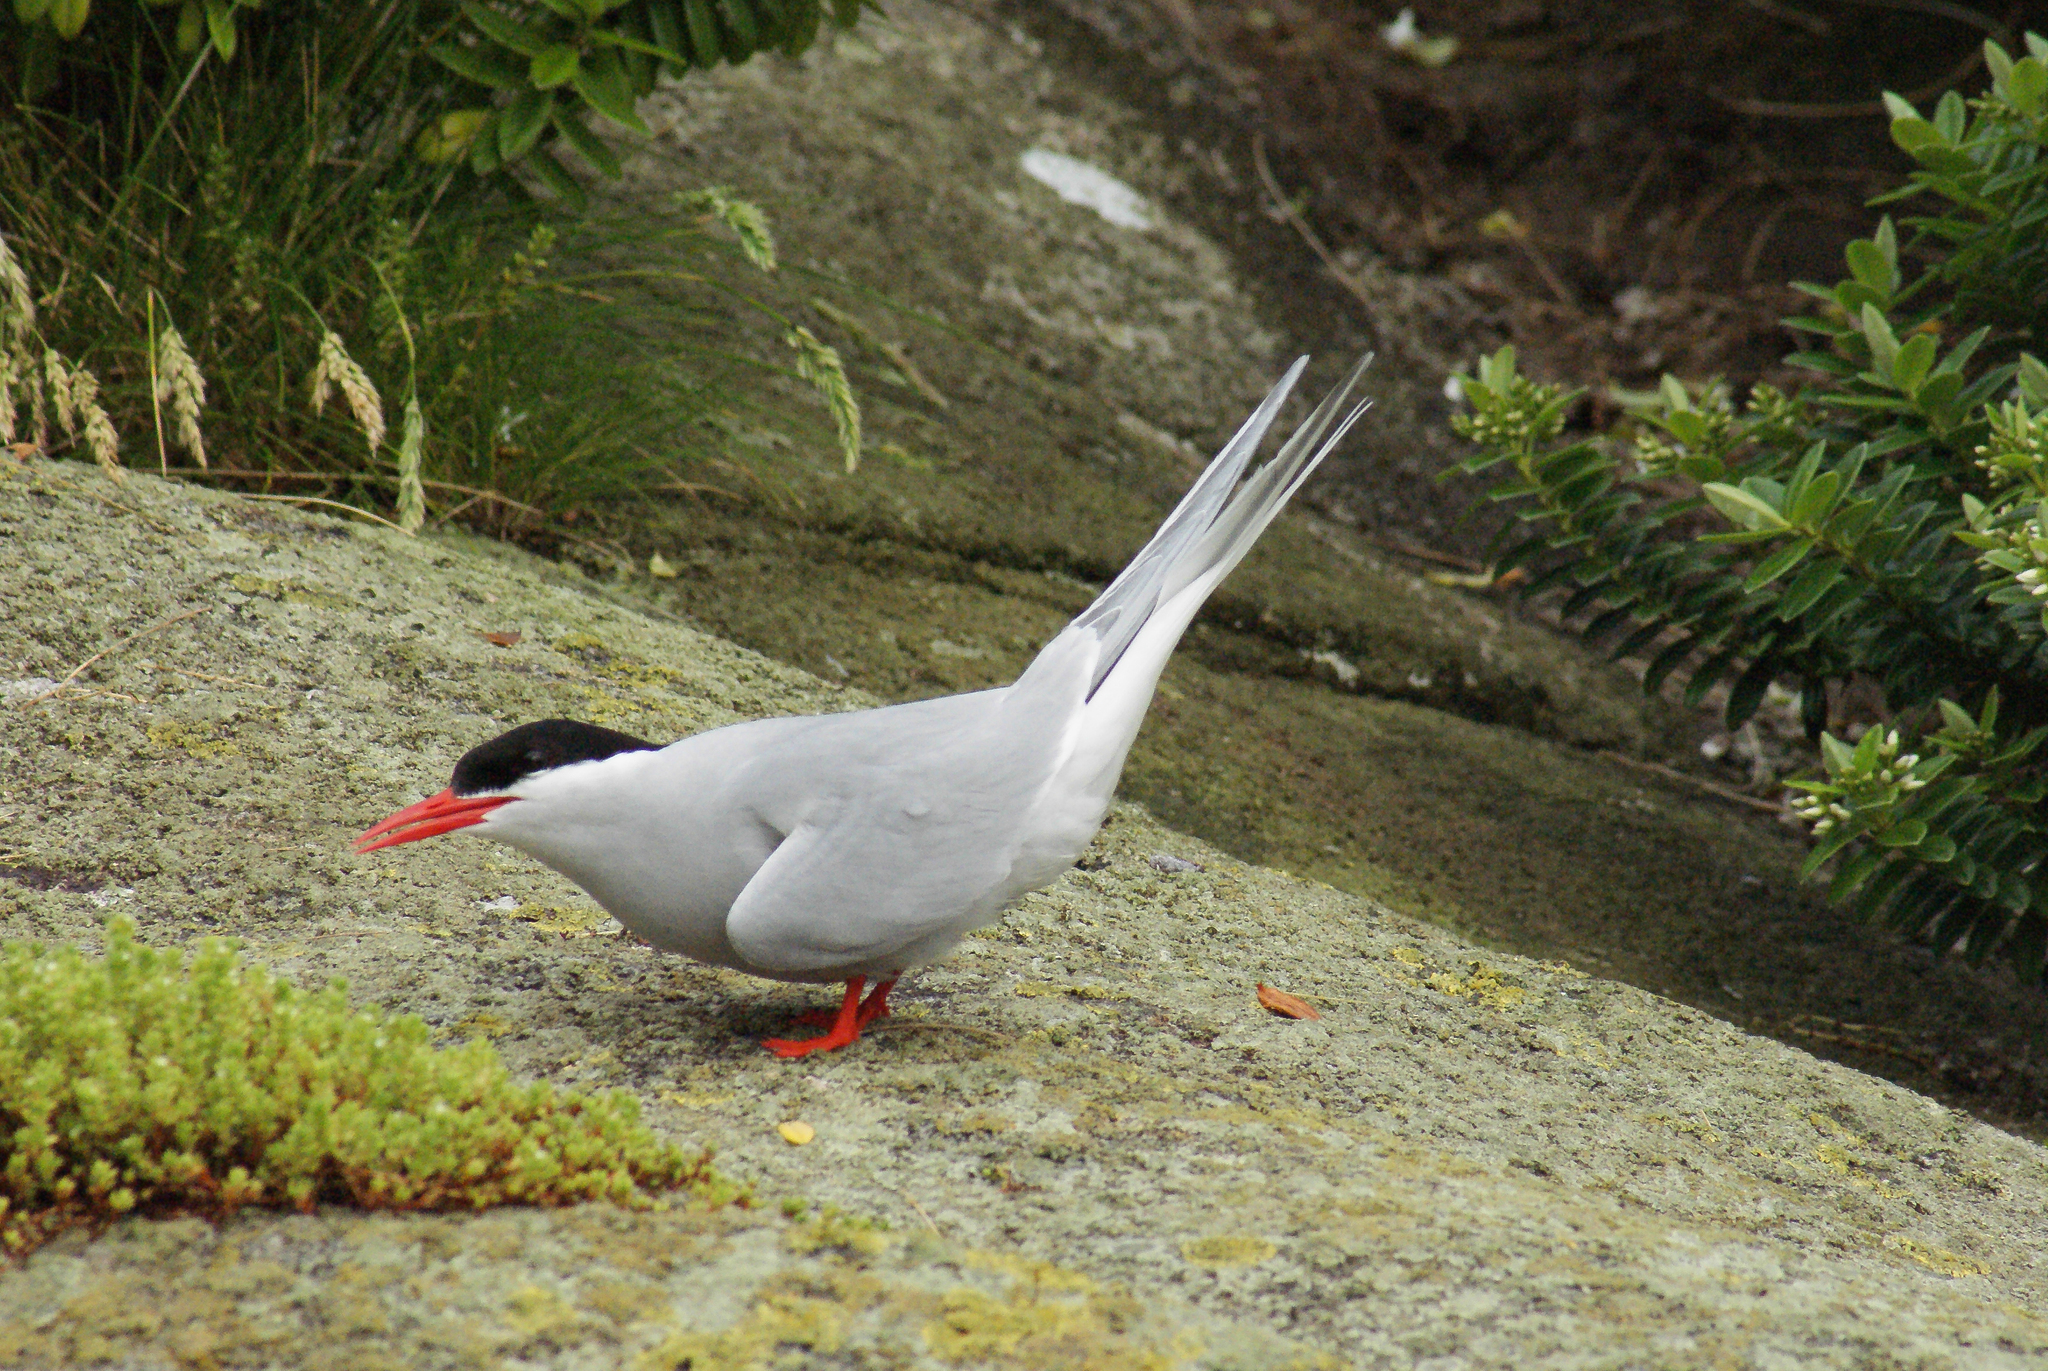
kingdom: Animalia
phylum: Chordata
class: Aves
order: Charadriiformes
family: Laridae
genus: Sterna
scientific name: Sterna vittata
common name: Antarctic tern
